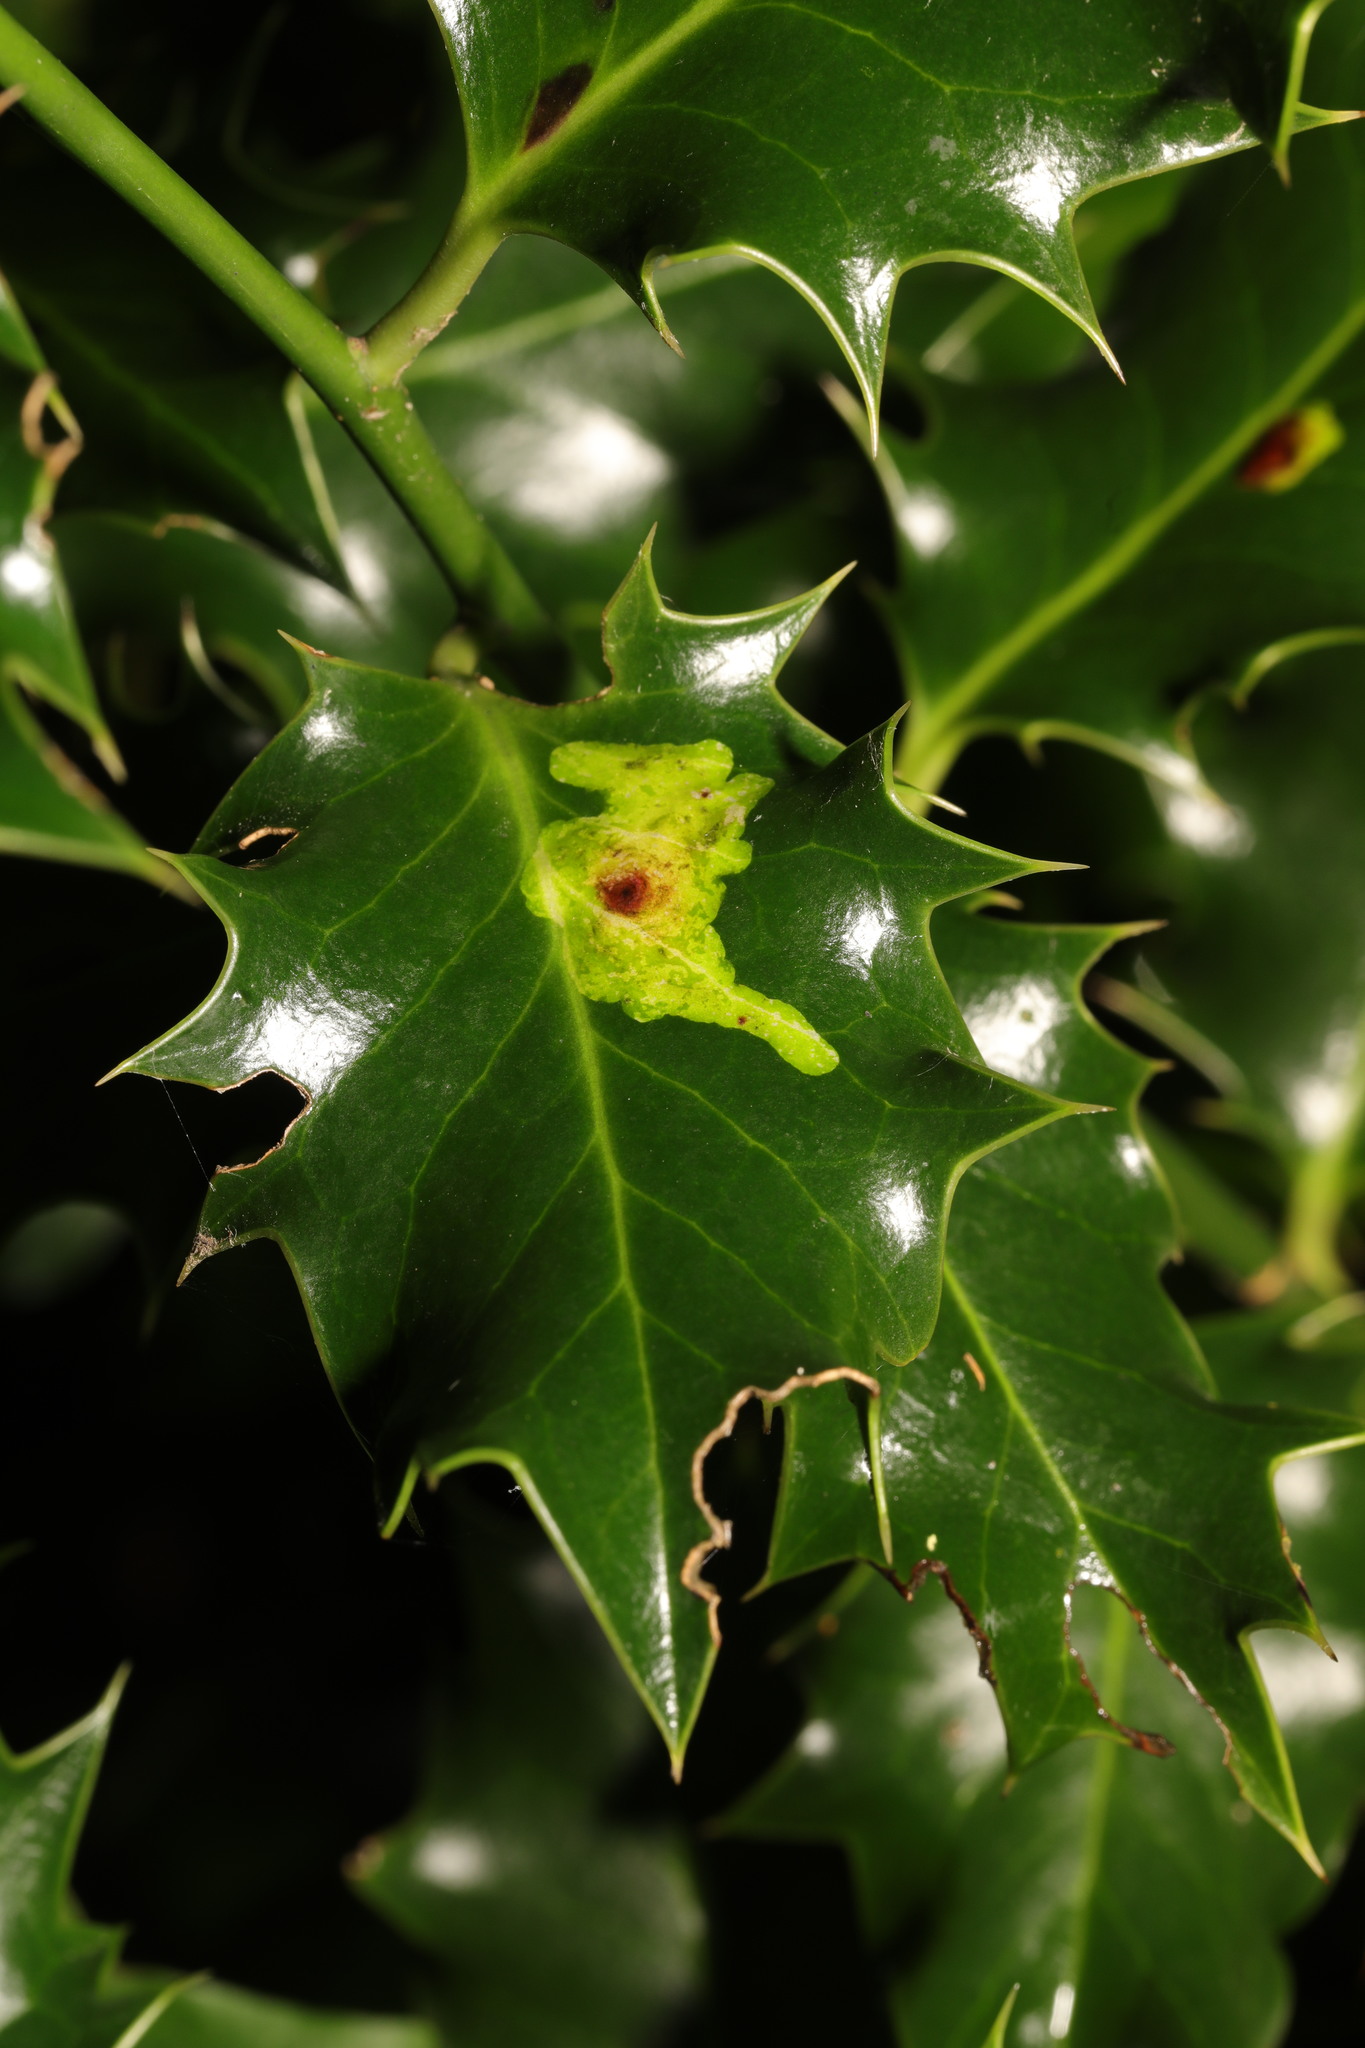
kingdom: Animalia
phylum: Arthropoda
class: Insecta
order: Diptera
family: Agromyzidae
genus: Phytomyza
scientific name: Phytomyza ilicis
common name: Holly leafminer
